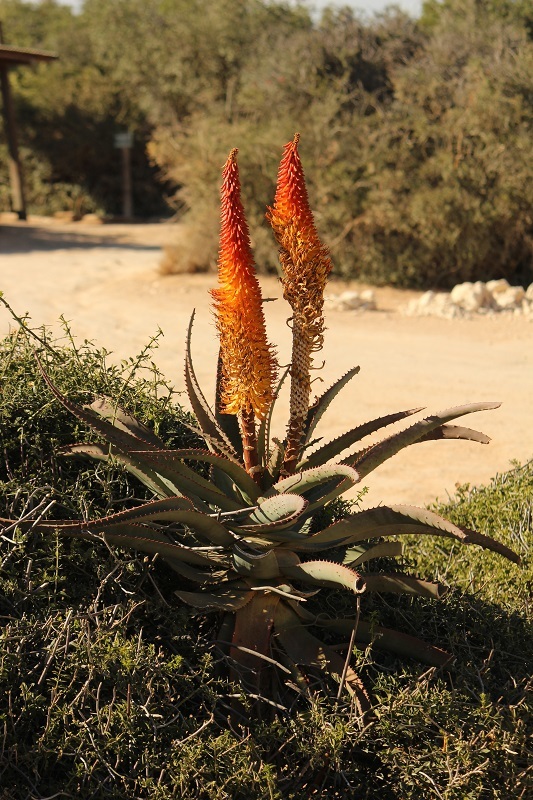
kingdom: Plantae
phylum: Tracheophyta
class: Liliopsida
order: Asparagales
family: Asphodelaceae
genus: Aloe
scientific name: Aloe africana
